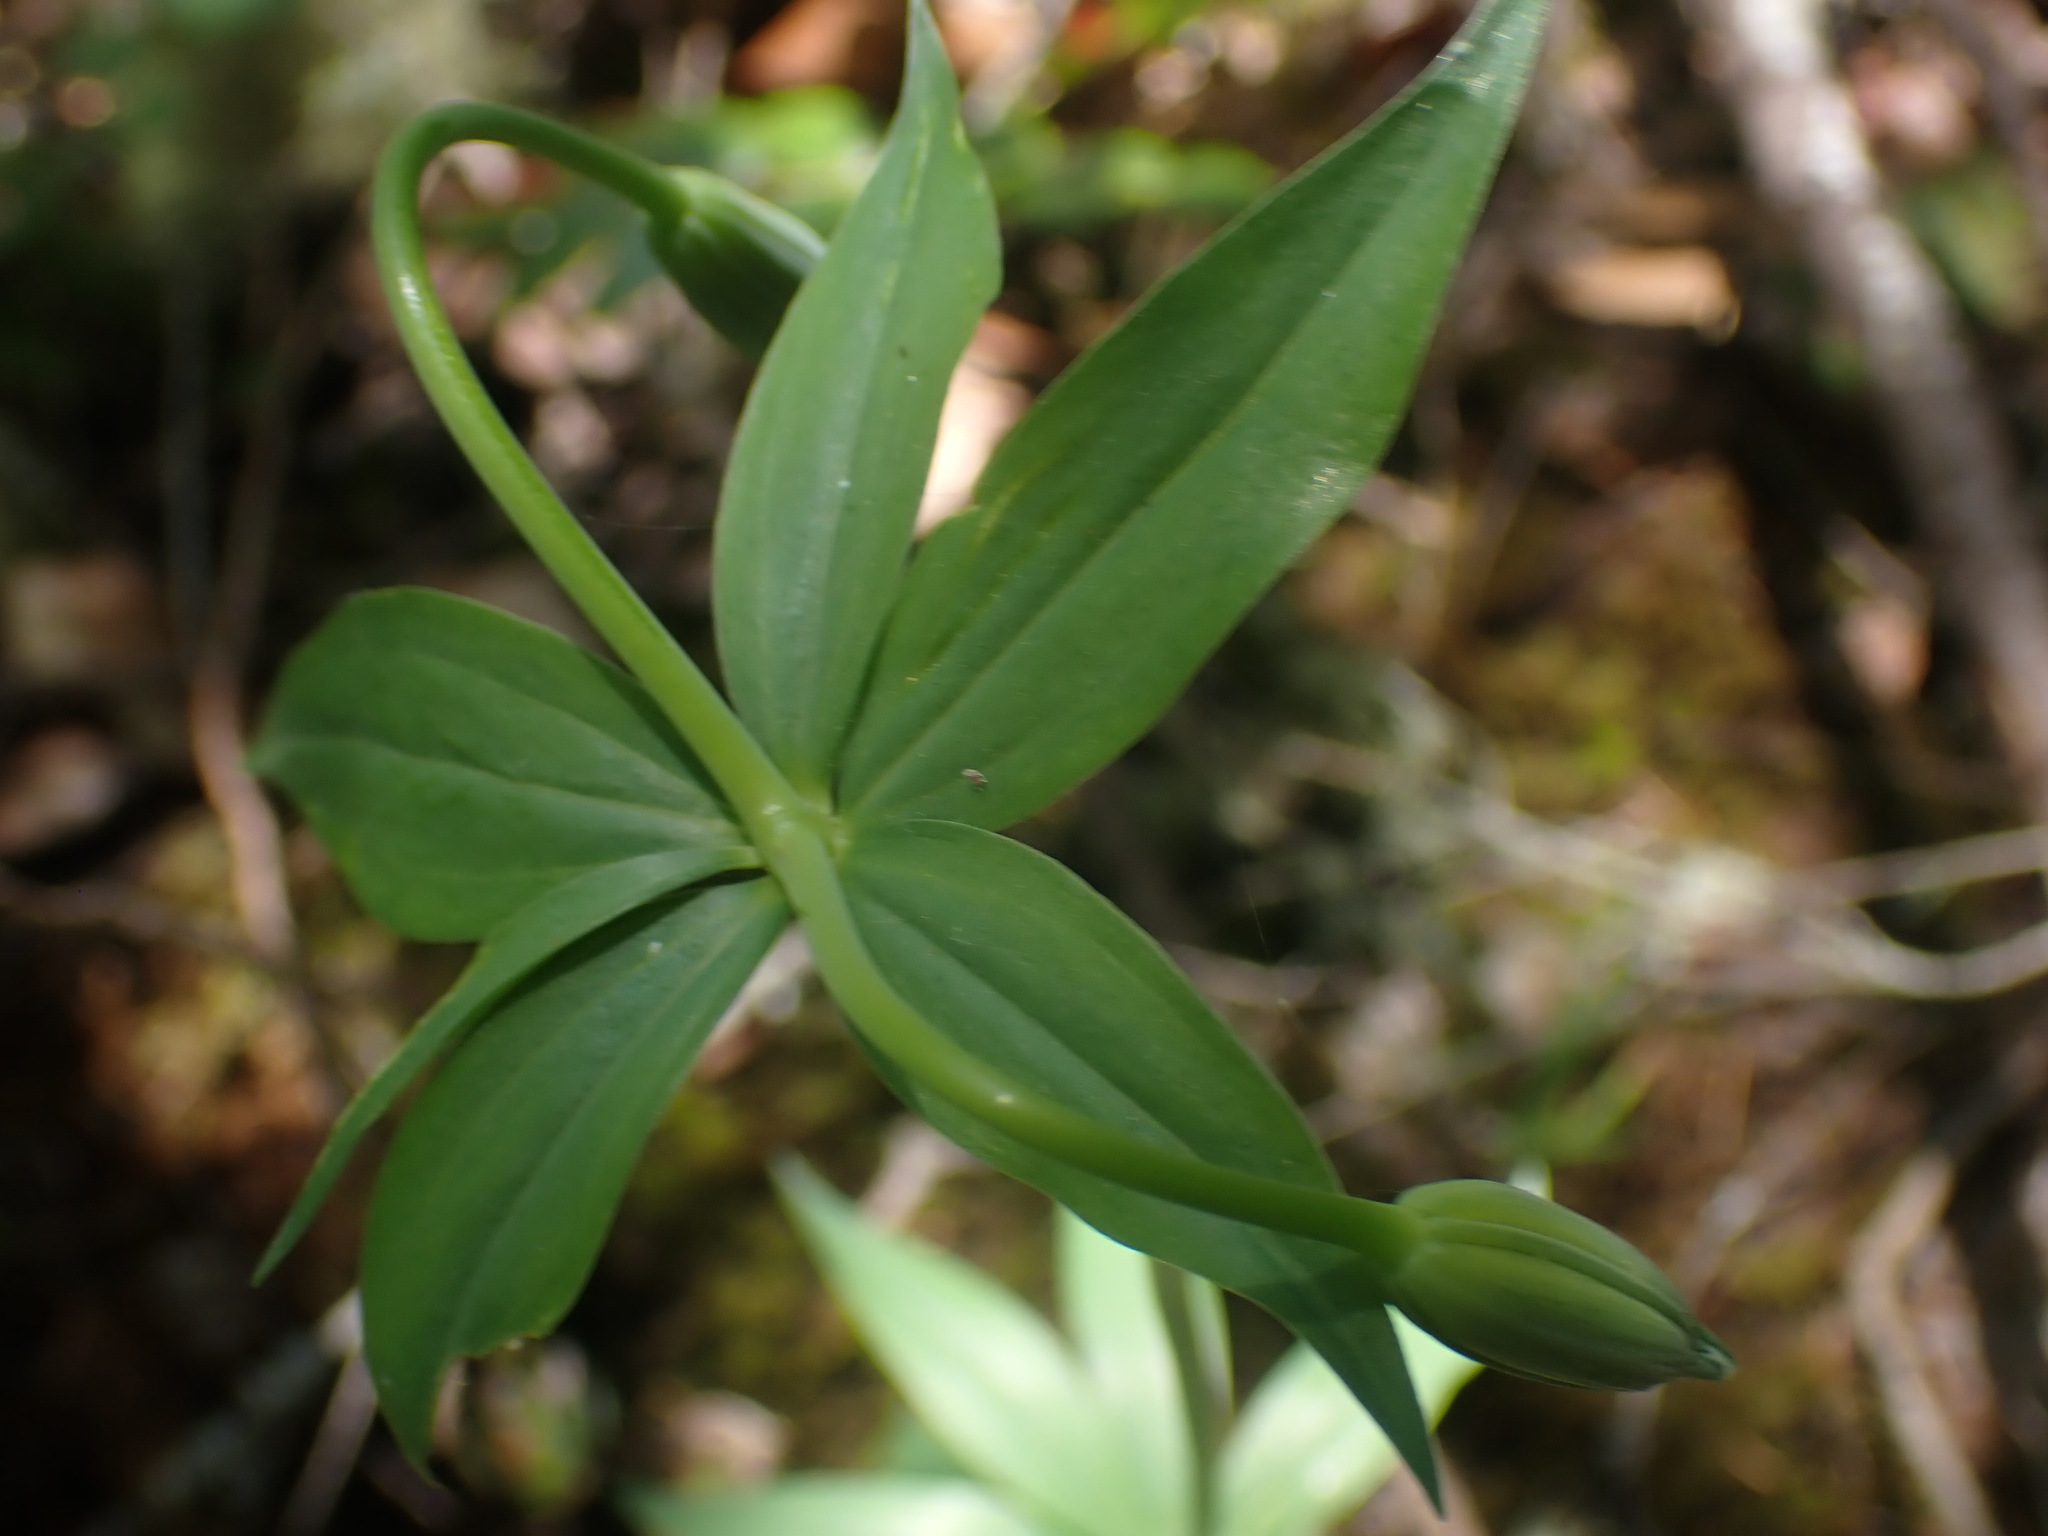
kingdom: Plantae
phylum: Tracheophyta
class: Liliopsida
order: Liliales
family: Liliaceae
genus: Lilium
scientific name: Lilium columbianum
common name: Columbia lily
